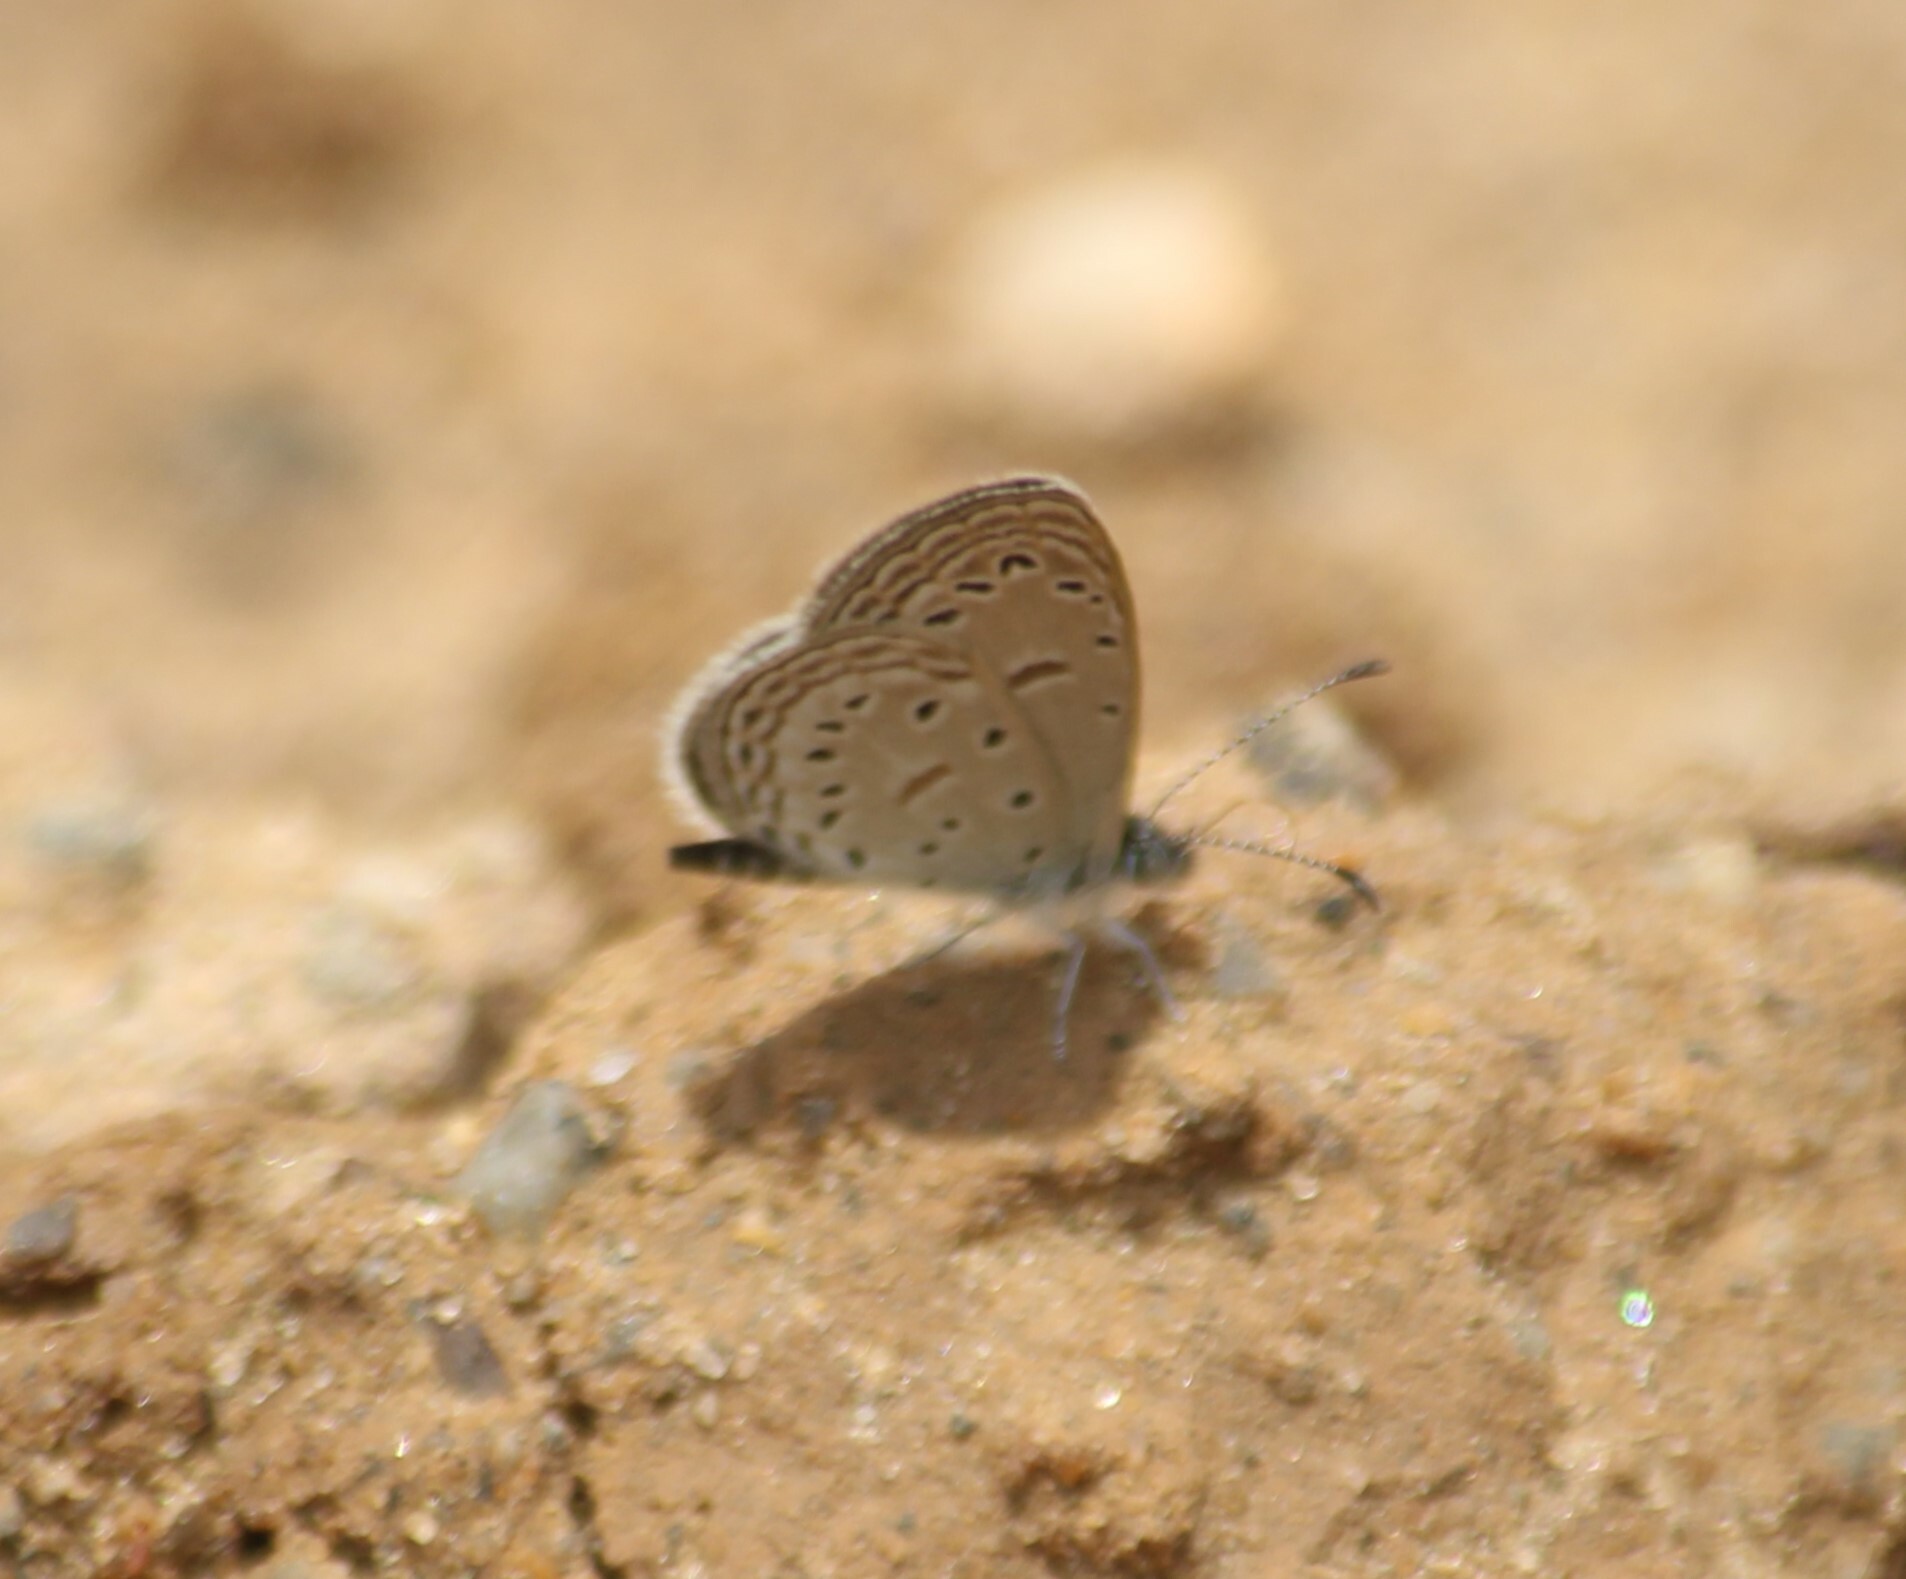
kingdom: Animalia
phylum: Arthropoda
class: Insecta
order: Lepidoptera
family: Lycaenidae
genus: Zizula
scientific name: Zizula hylax
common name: Gaika blue
